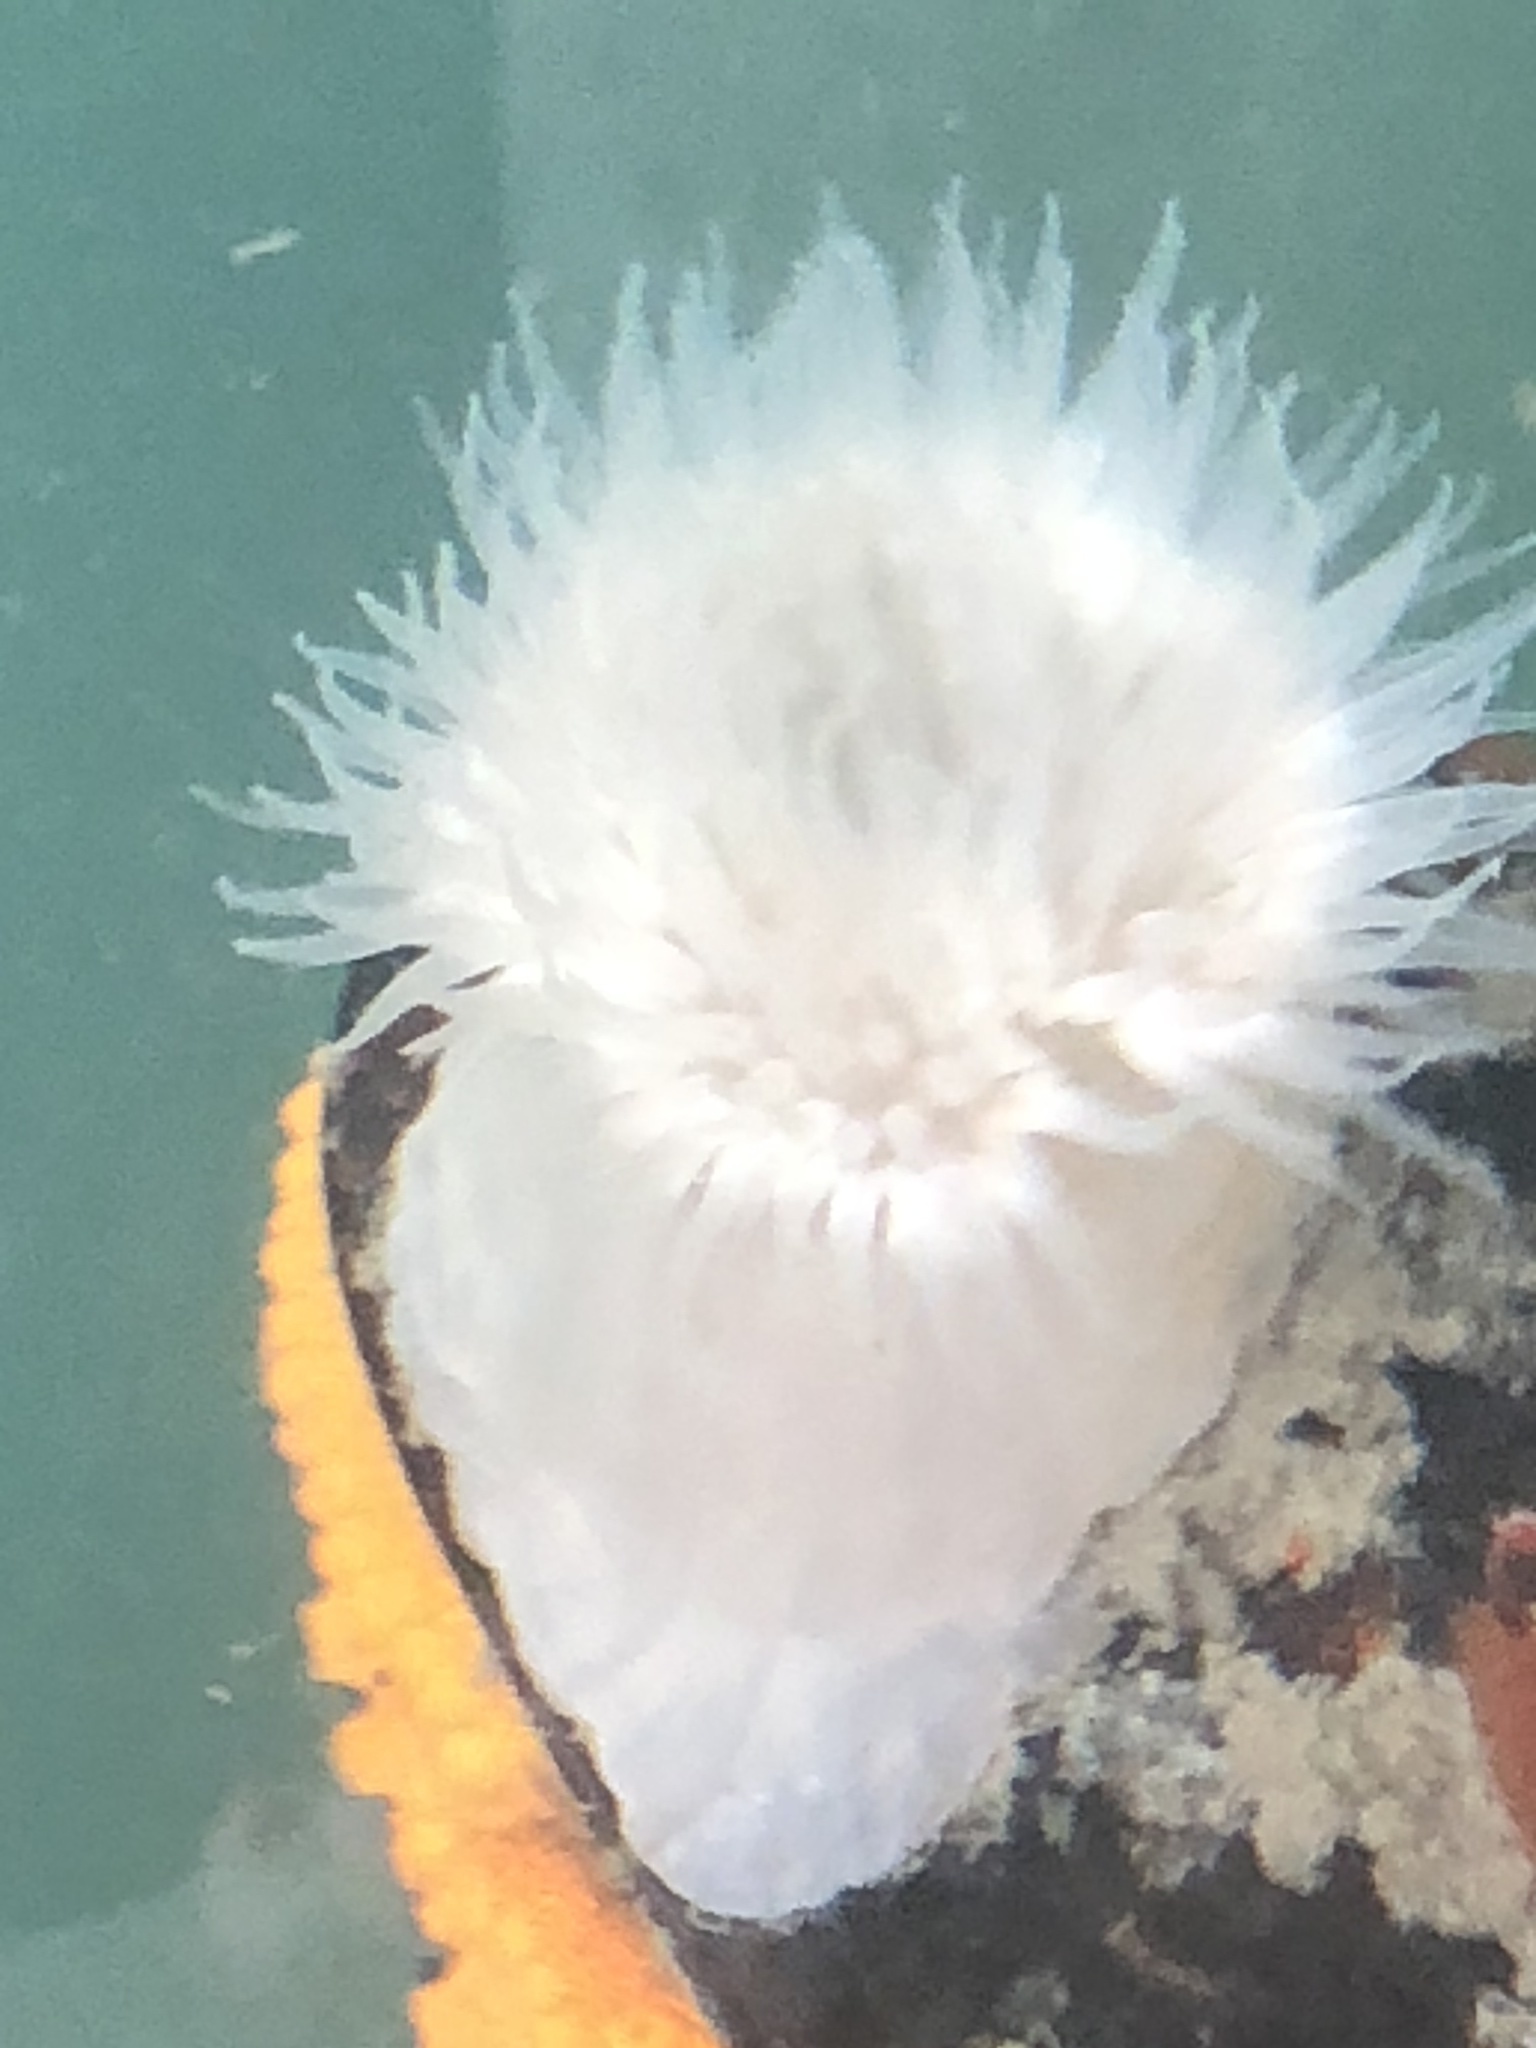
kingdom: Animalia
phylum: Cnidaria
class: Anthozoa
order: Actiniaria
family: Metridiidae
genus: Metridium
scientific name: Metridium senile
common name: Clonal plumose anemone
